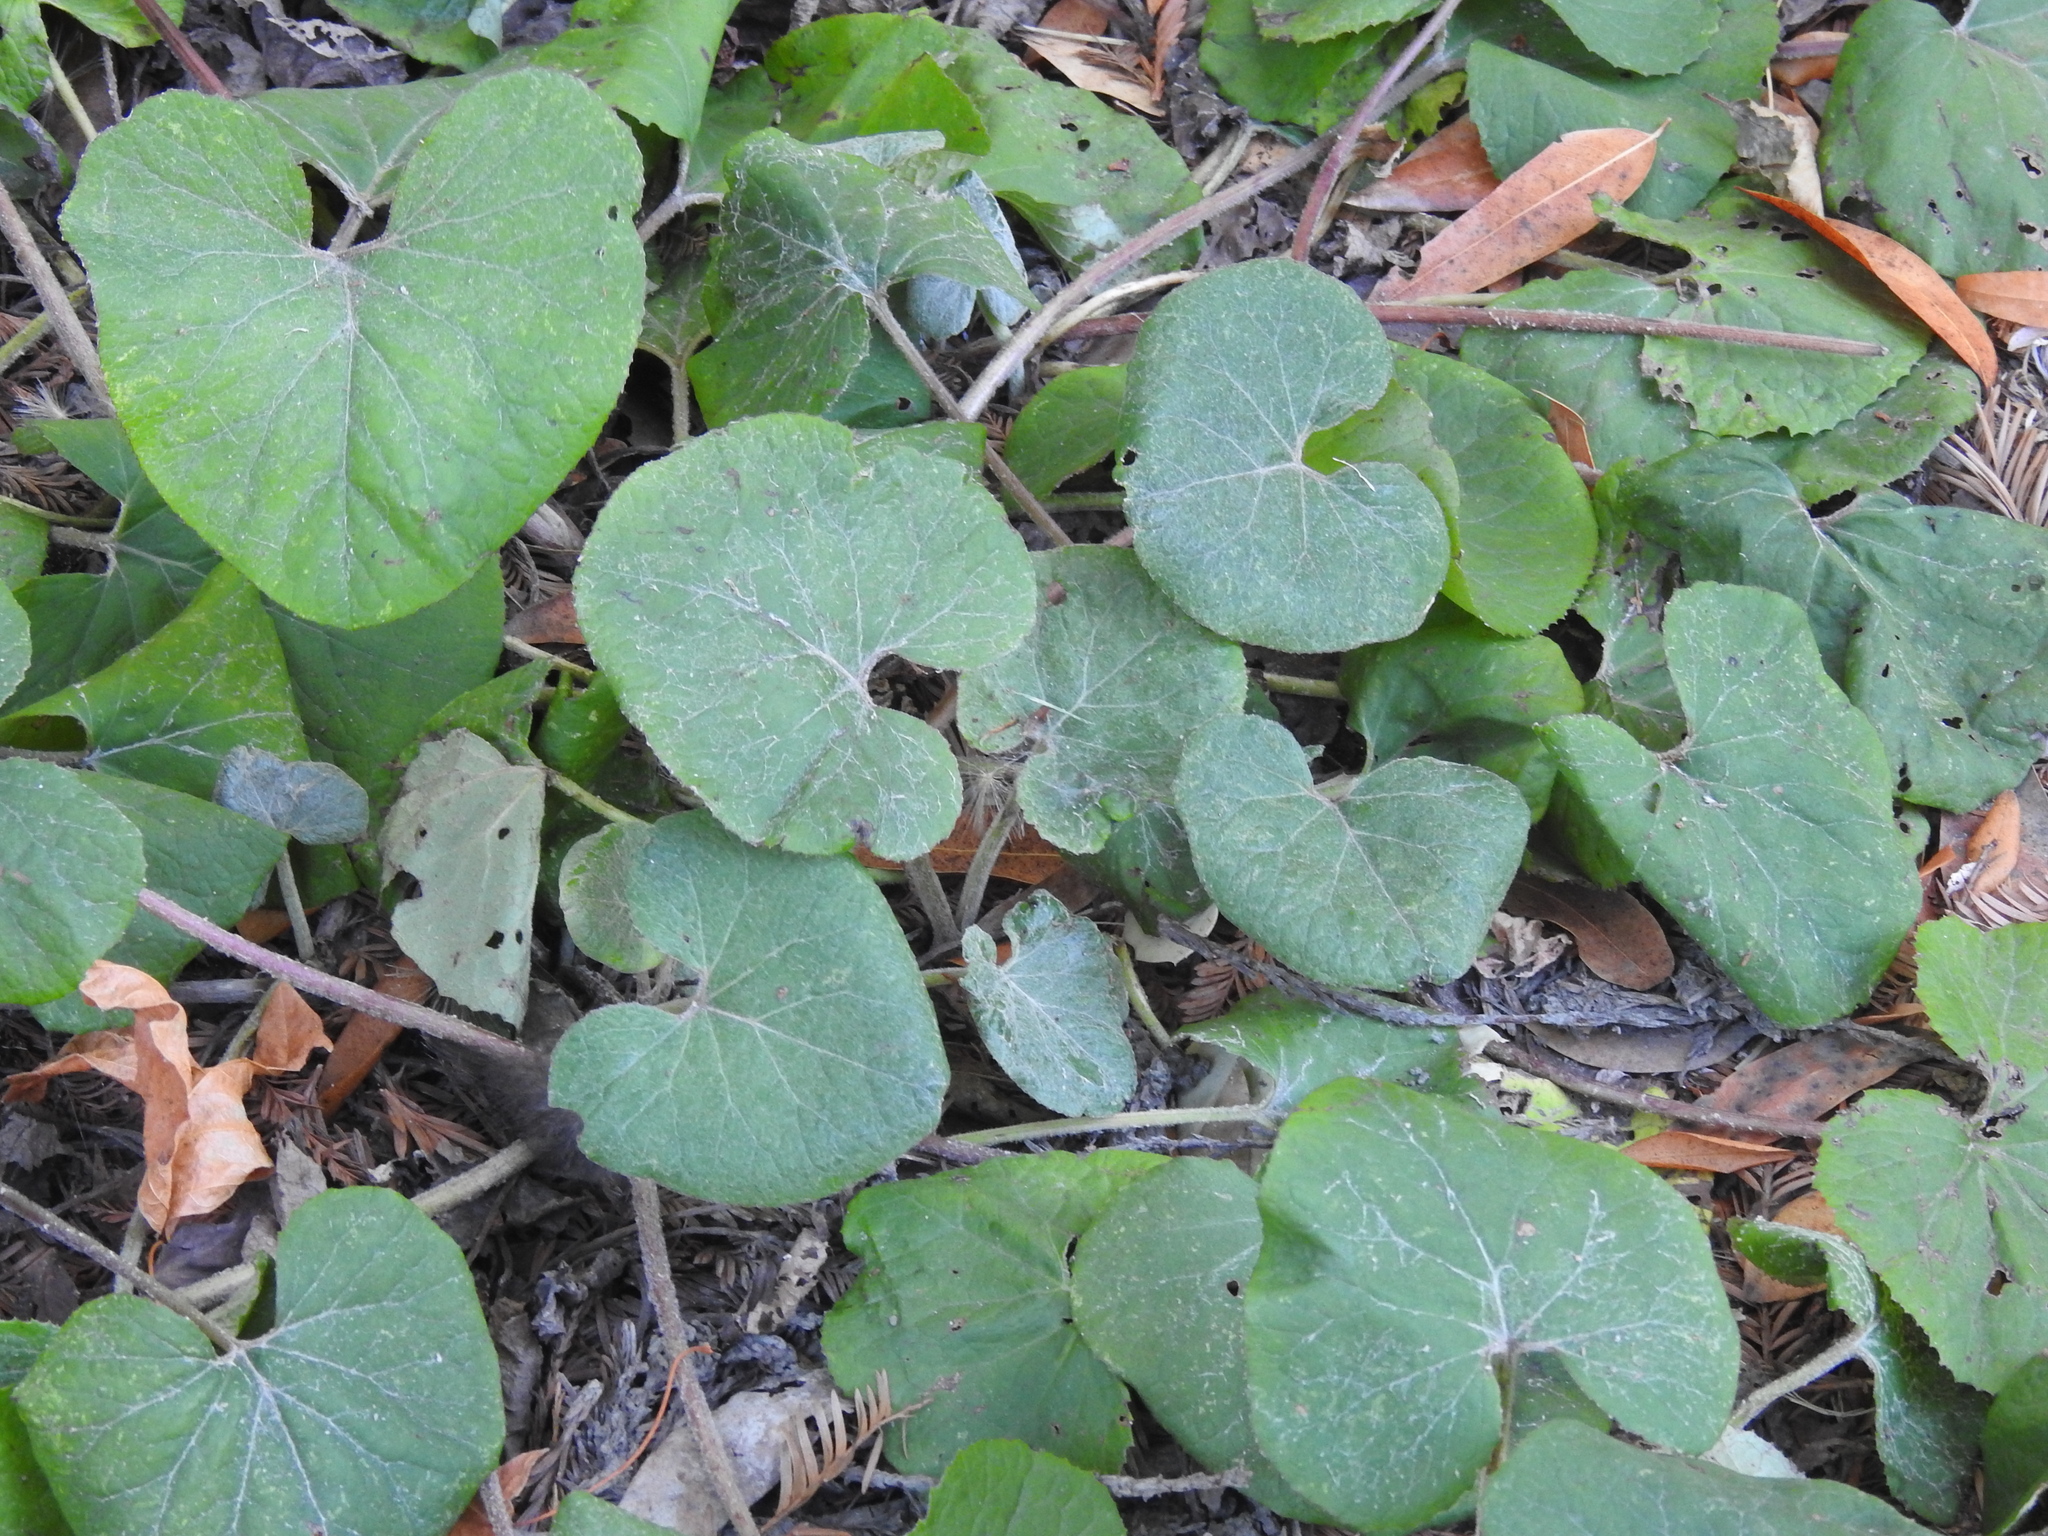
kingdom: Plantae
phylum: Tracheophyta
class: Magnoliopsida
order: Asterales
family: Asteraceae
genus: Petasites
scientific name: Petasites pyrenaicus
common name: Winter heliotrope
